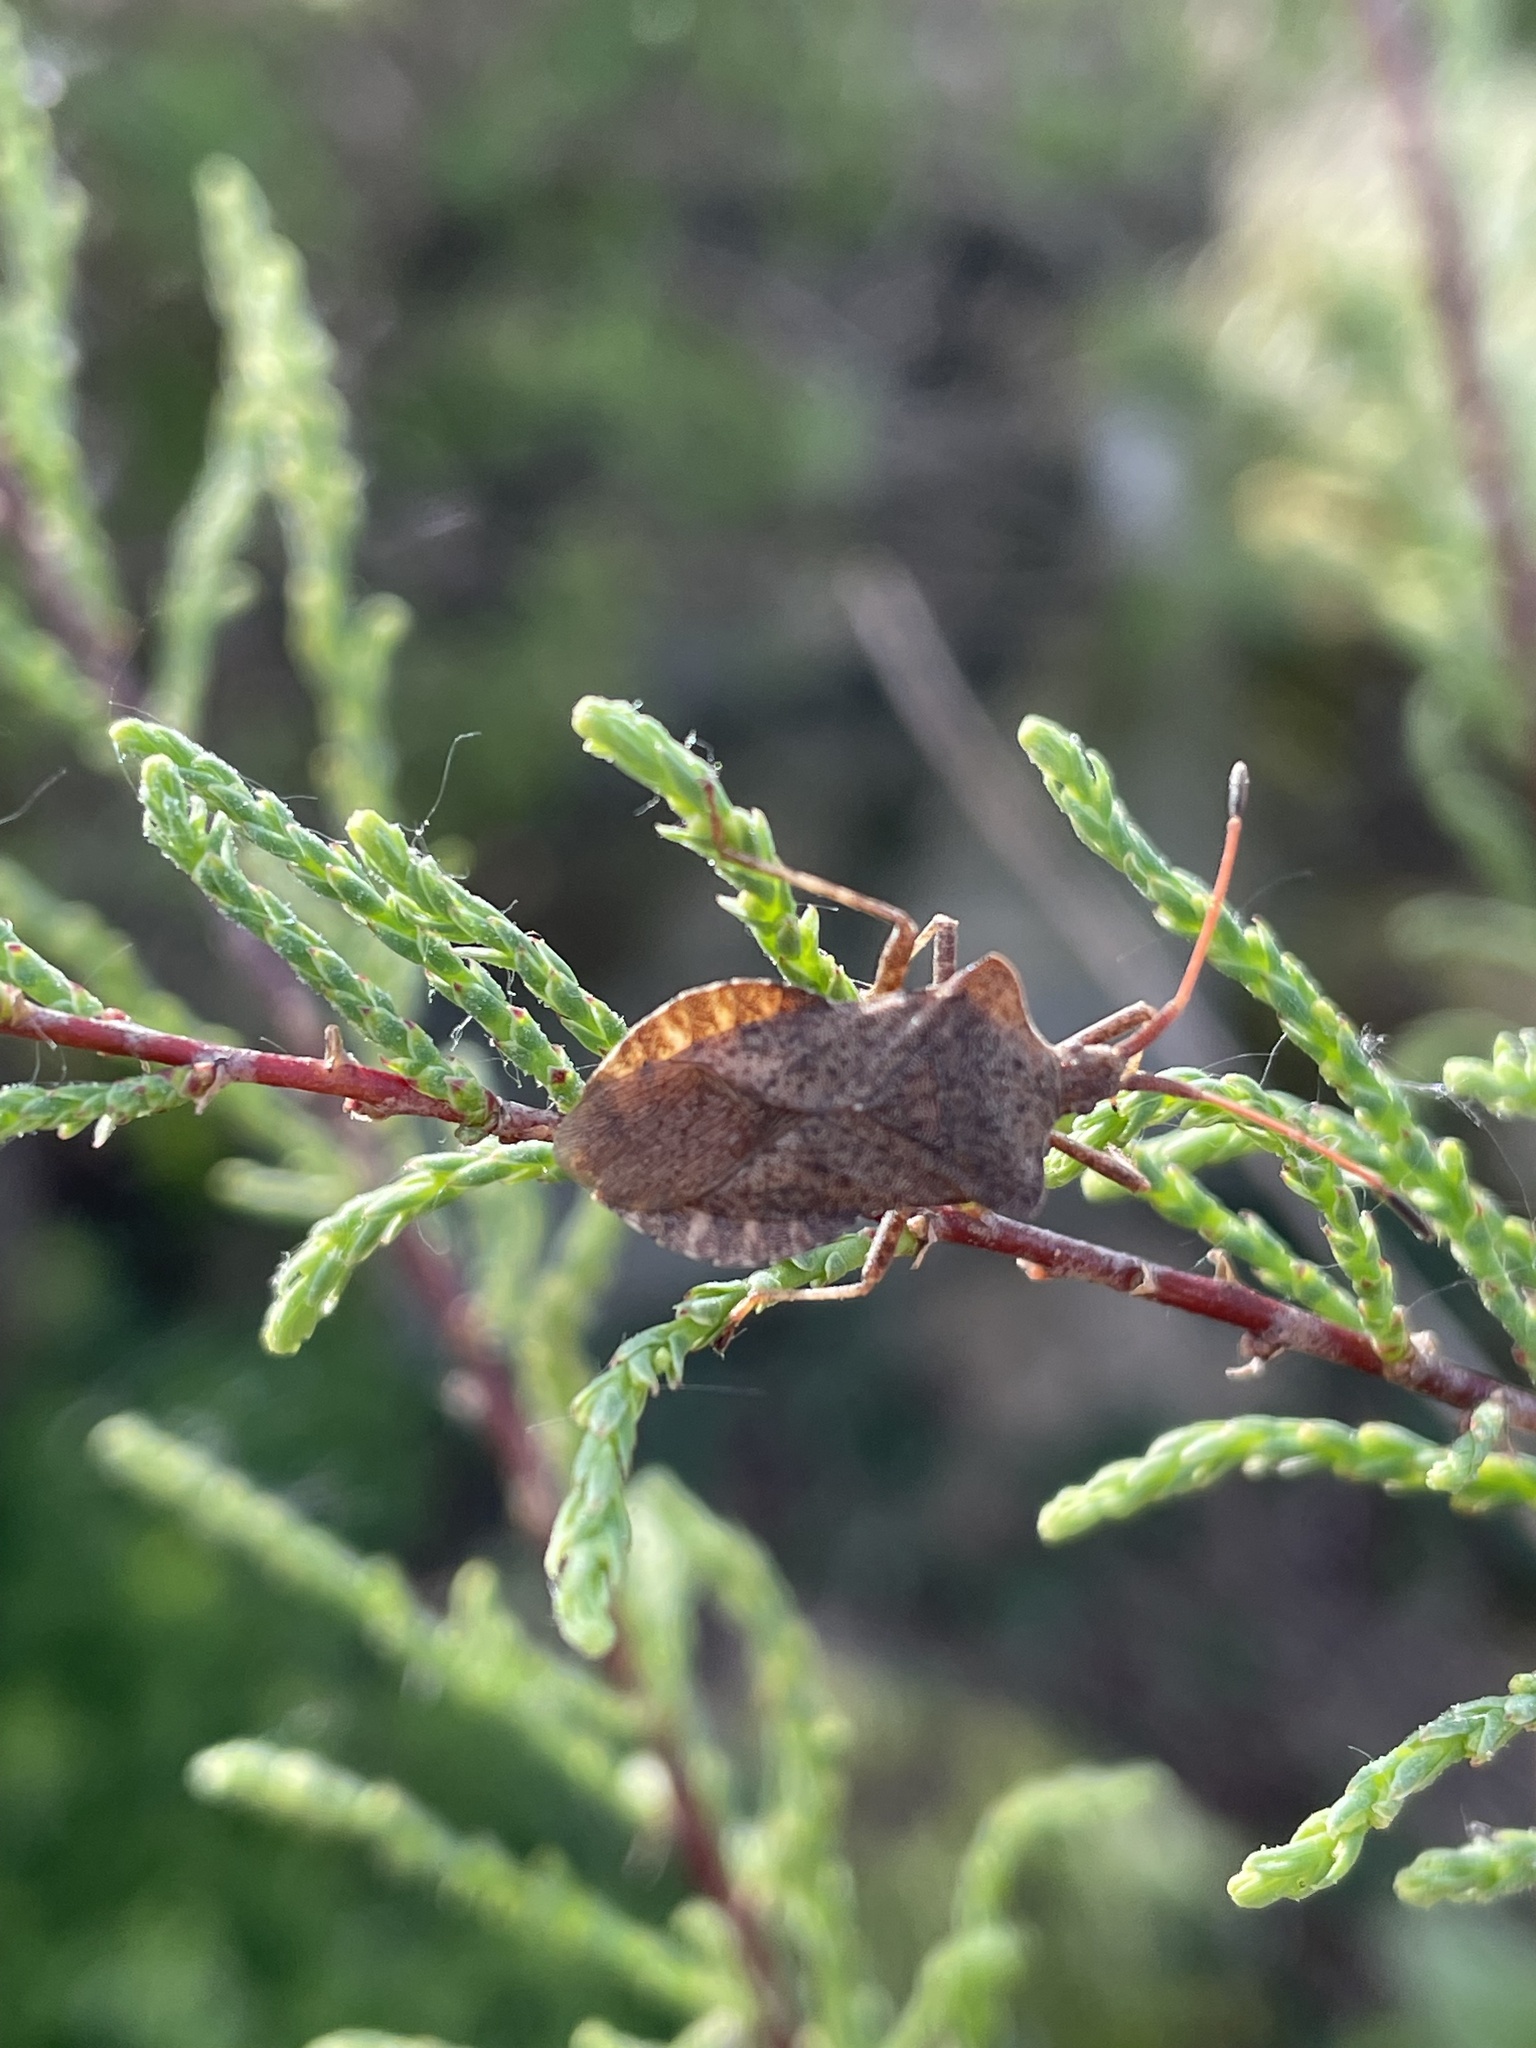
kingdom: Animalia
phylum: Arthropoda
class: Insecta
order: Hemiptera
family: Coreidae
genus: Coreus
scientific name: Coreus marginatus
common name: Dock bug
